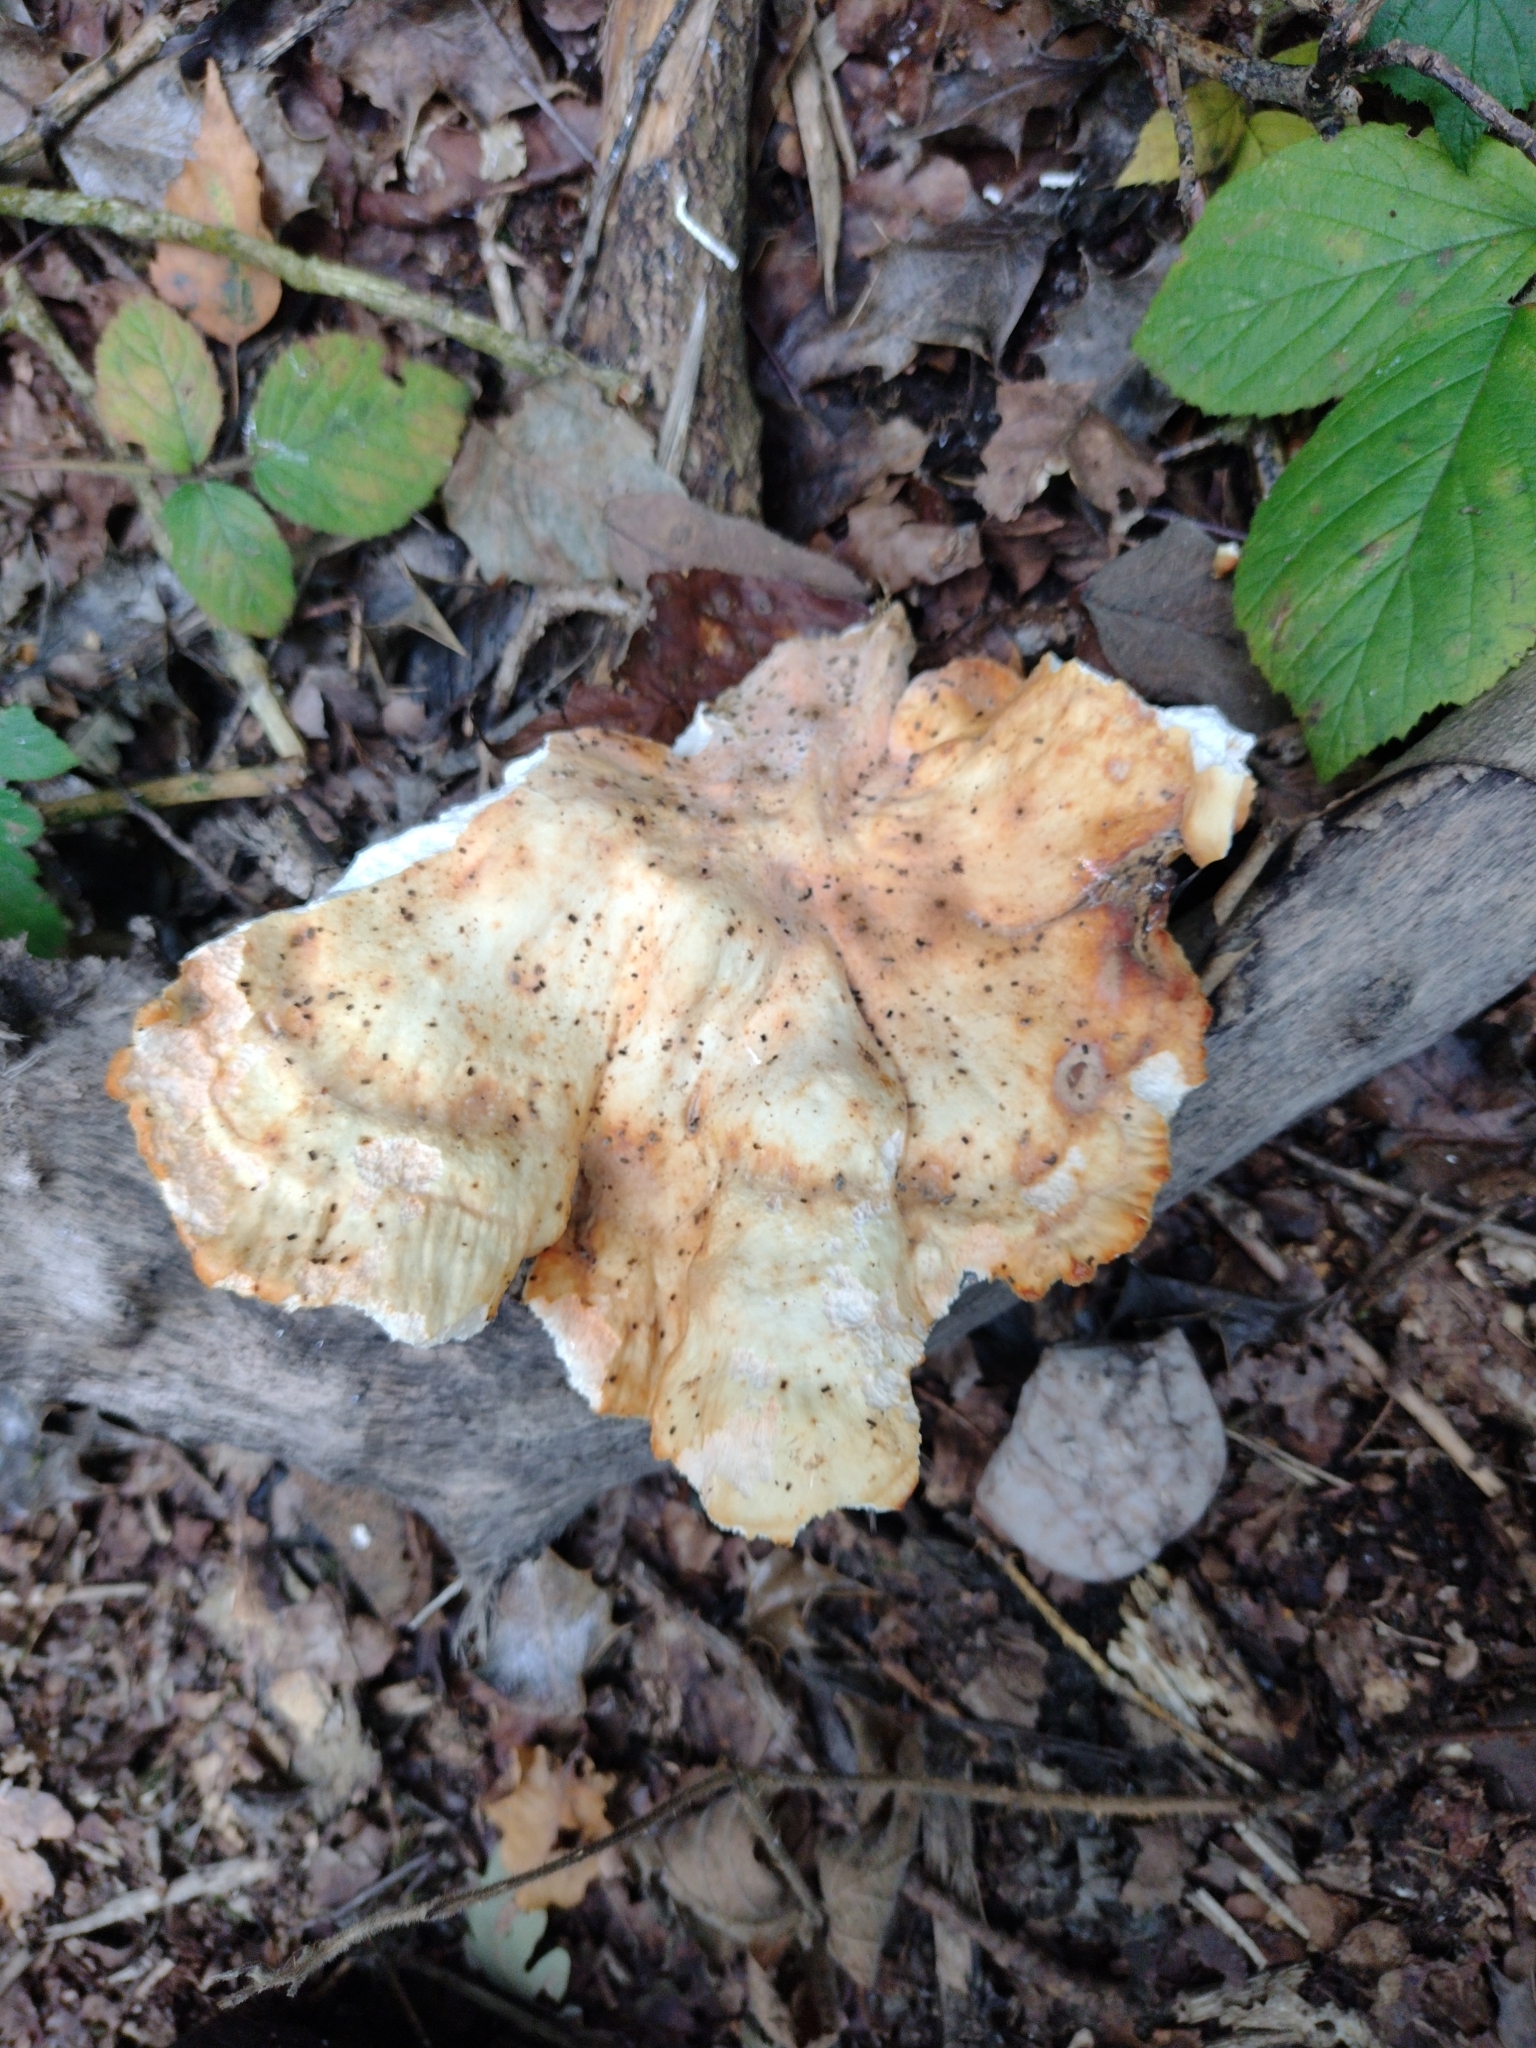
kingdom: Fungi
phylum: Basidiomycota
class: Agaricomycetes
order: Polyporales
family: Laetiporaceae
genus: Laetiporus
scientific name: Laetiporus sulphureus
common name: Chicken of the woods
